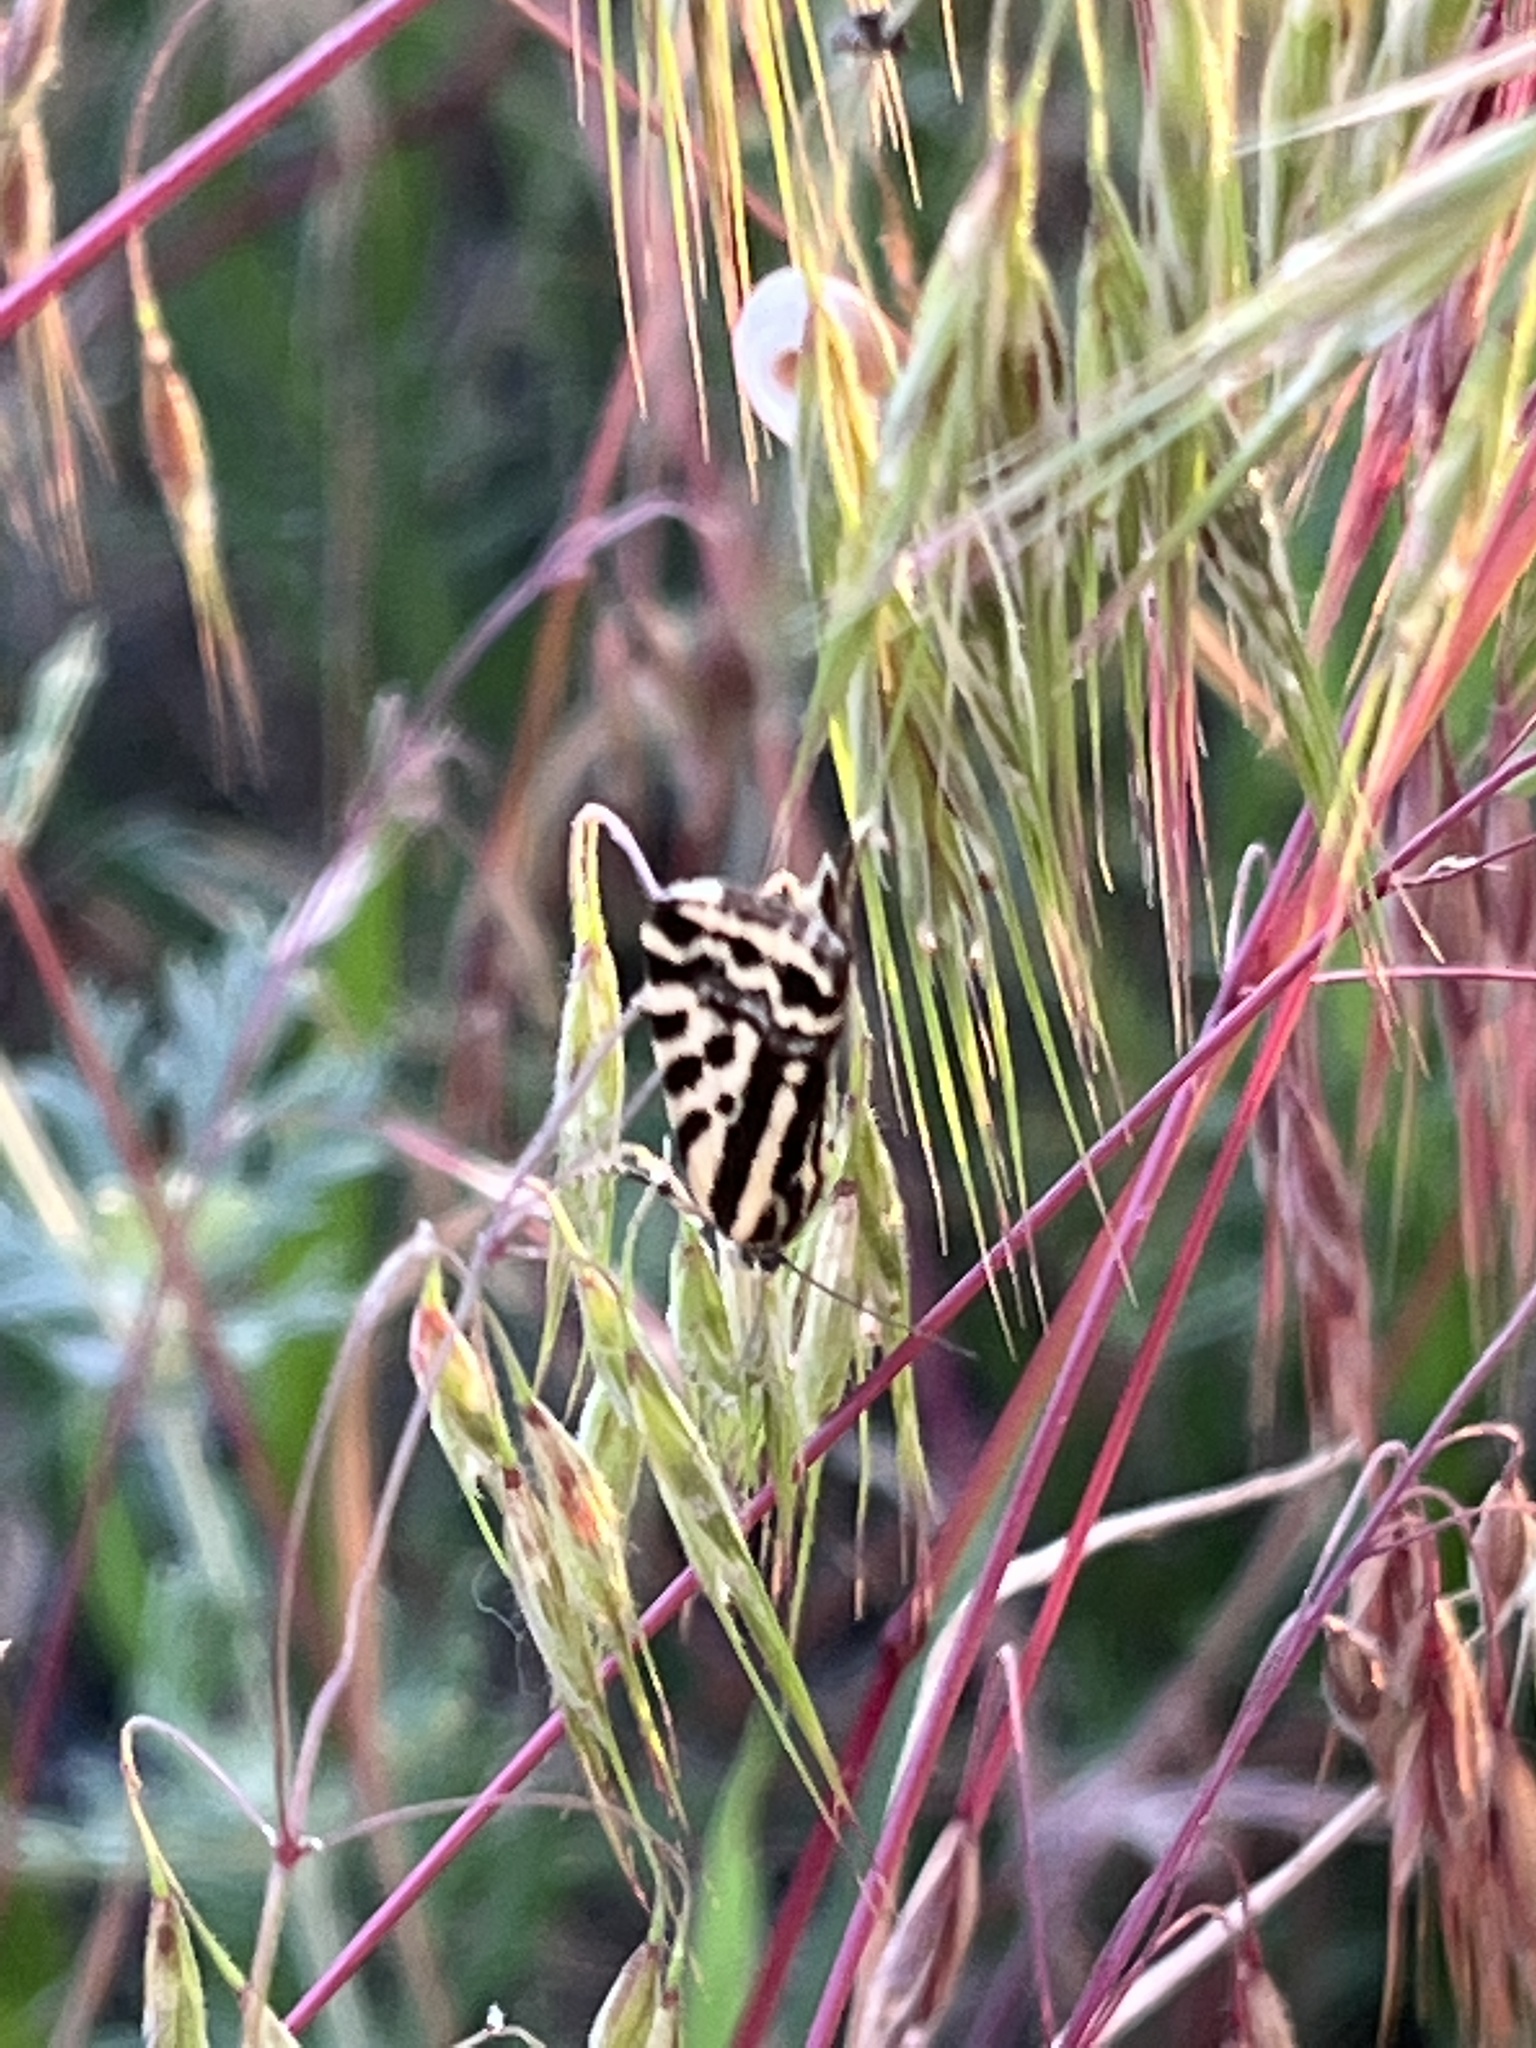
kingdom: Animalia
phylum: Arthropoda
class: Insecta
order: Lepidoptera
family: Noctuidae
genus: Acontia
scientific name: Acontia trabealis
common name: Spotted sulphur
